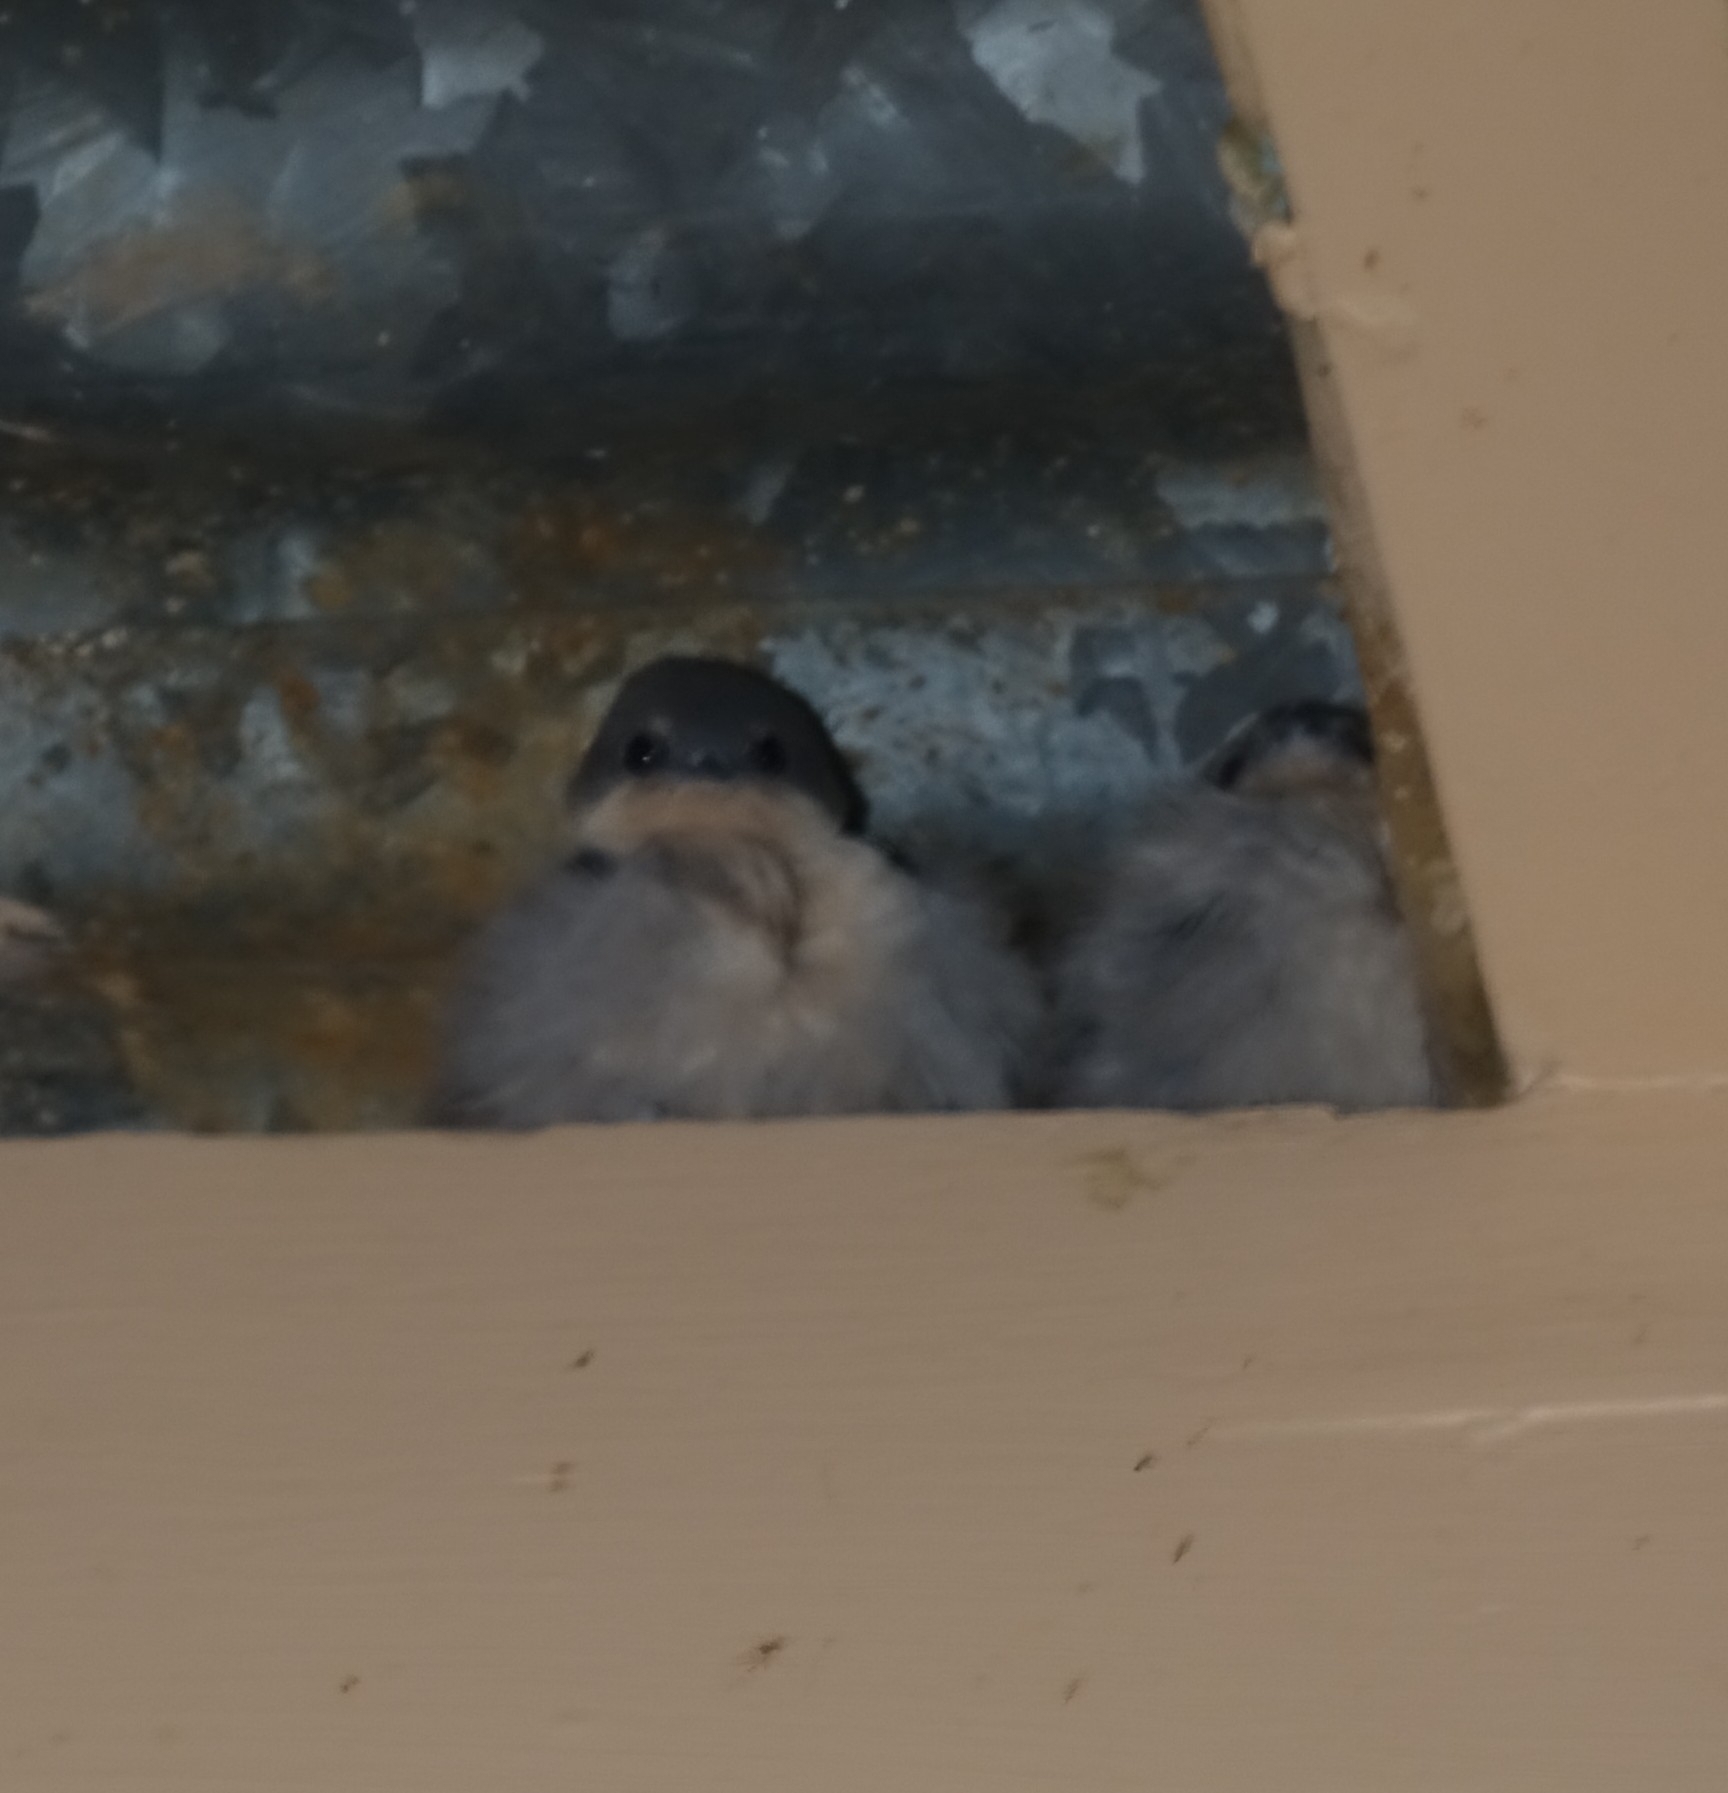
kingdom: Animalia
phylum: Chordata
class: Aves
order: Passeriformes
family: Hirundinidae
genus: Ptyonoprogne
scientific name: Ptyonoprogne fuligula
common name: Rock martin
